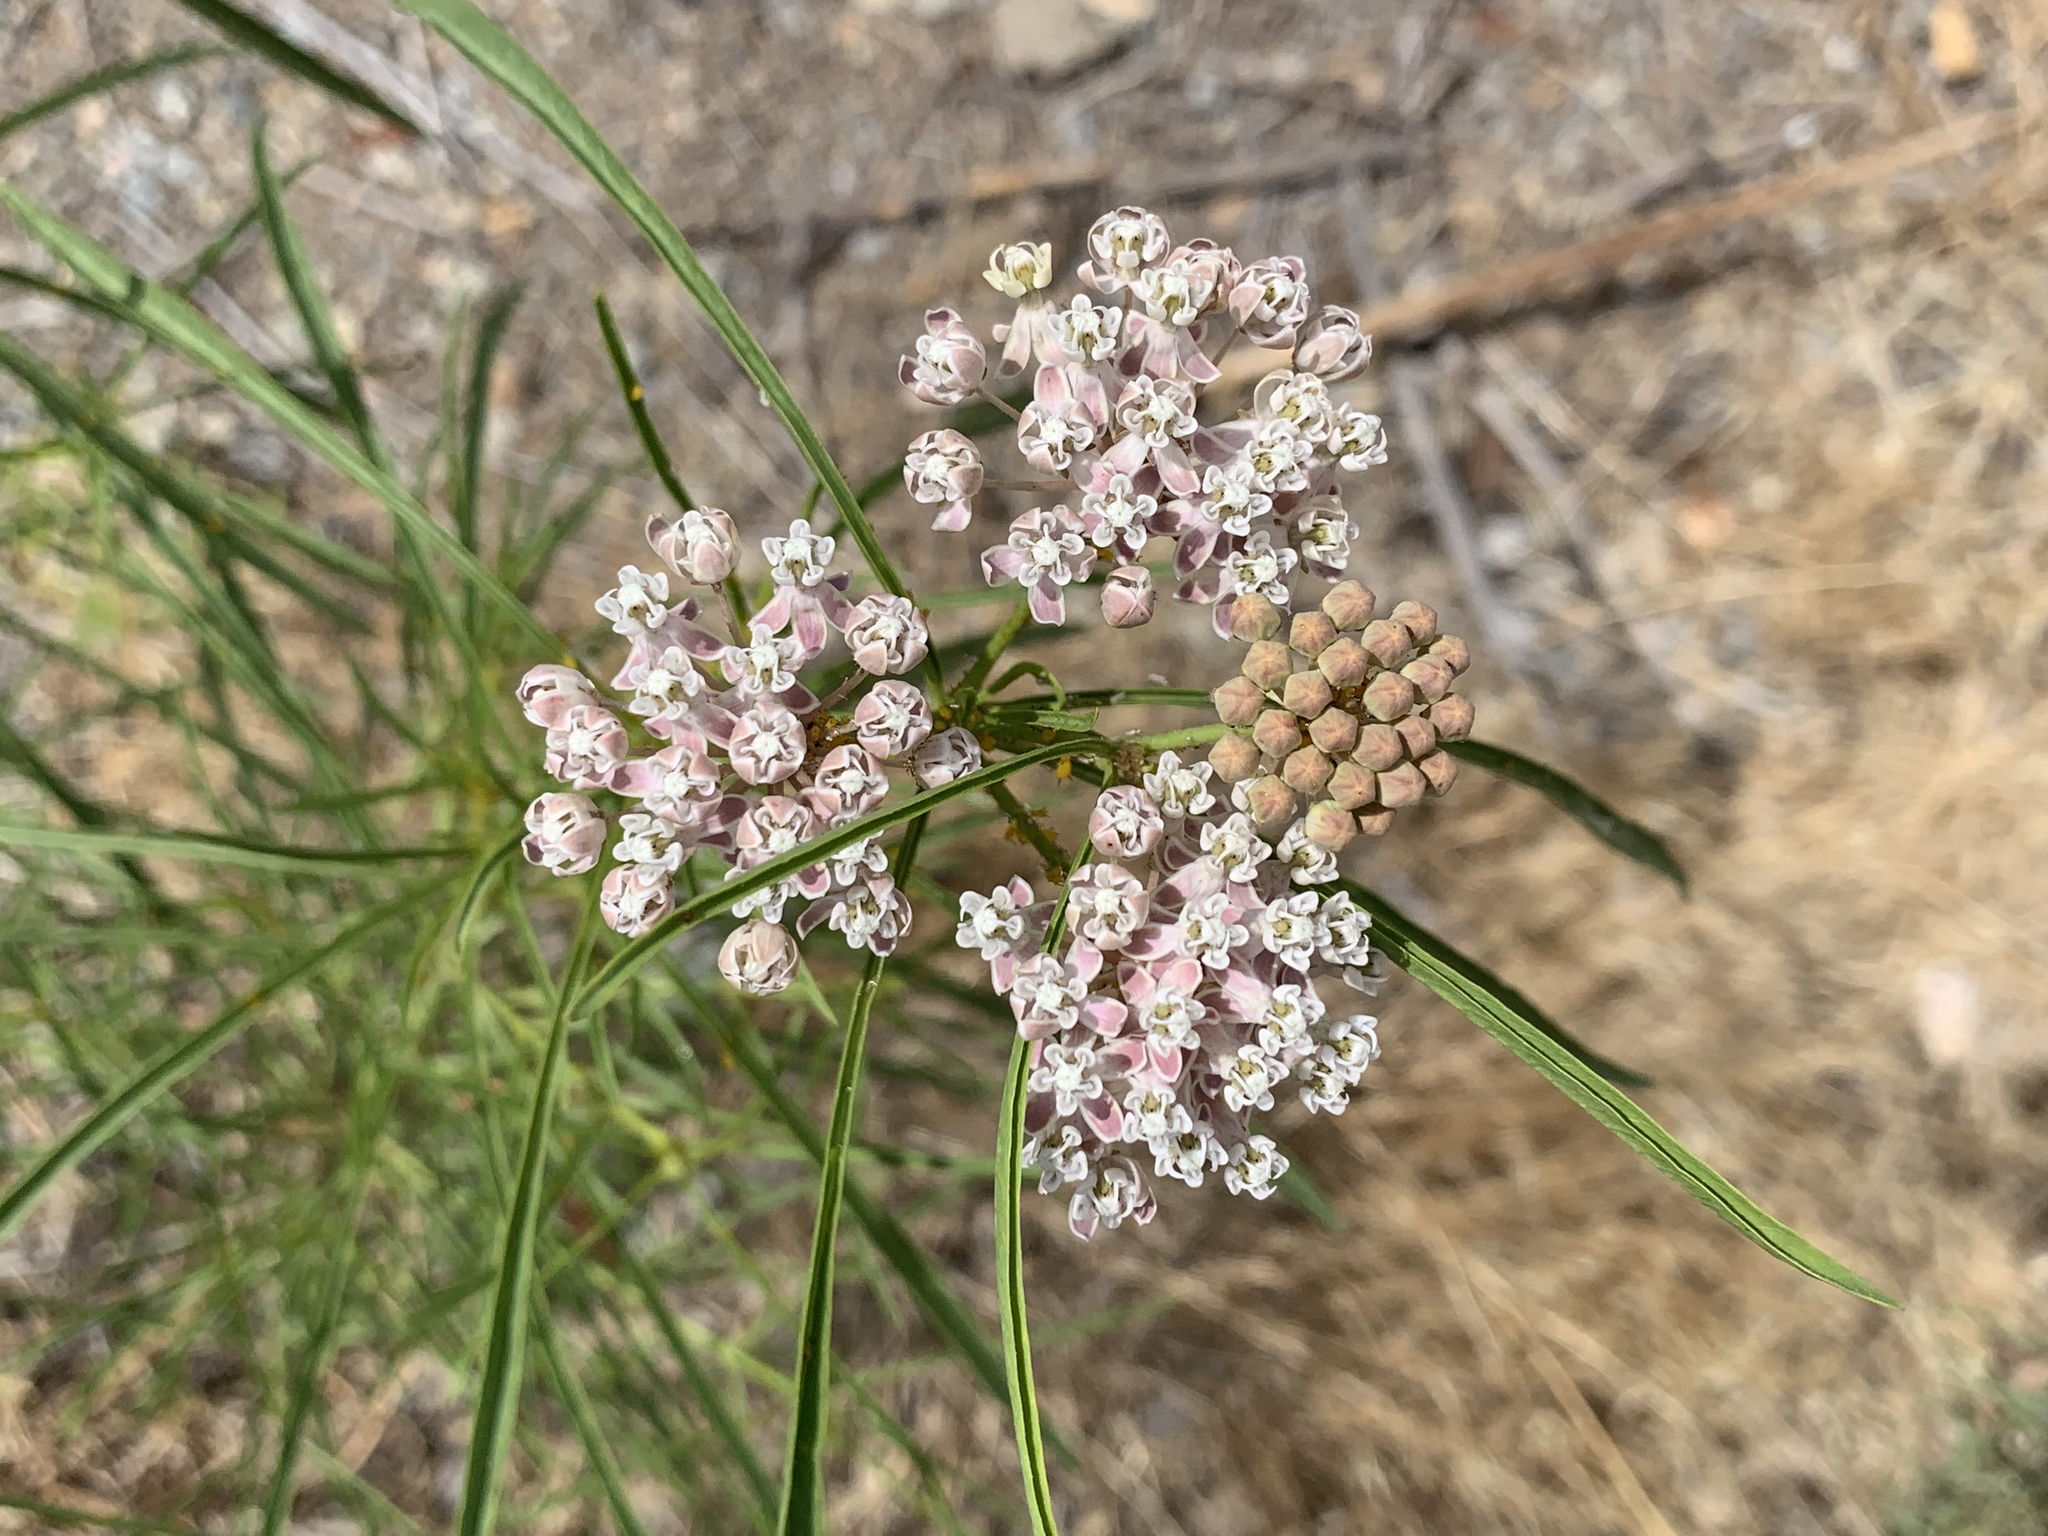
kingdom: Plantae
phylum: Tracheophyta
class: Magnoliopsida
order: Gentianales
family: Apocynaceae
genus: Asclepias
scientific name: Asclepias fascicularis
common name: Mexican milkweed
